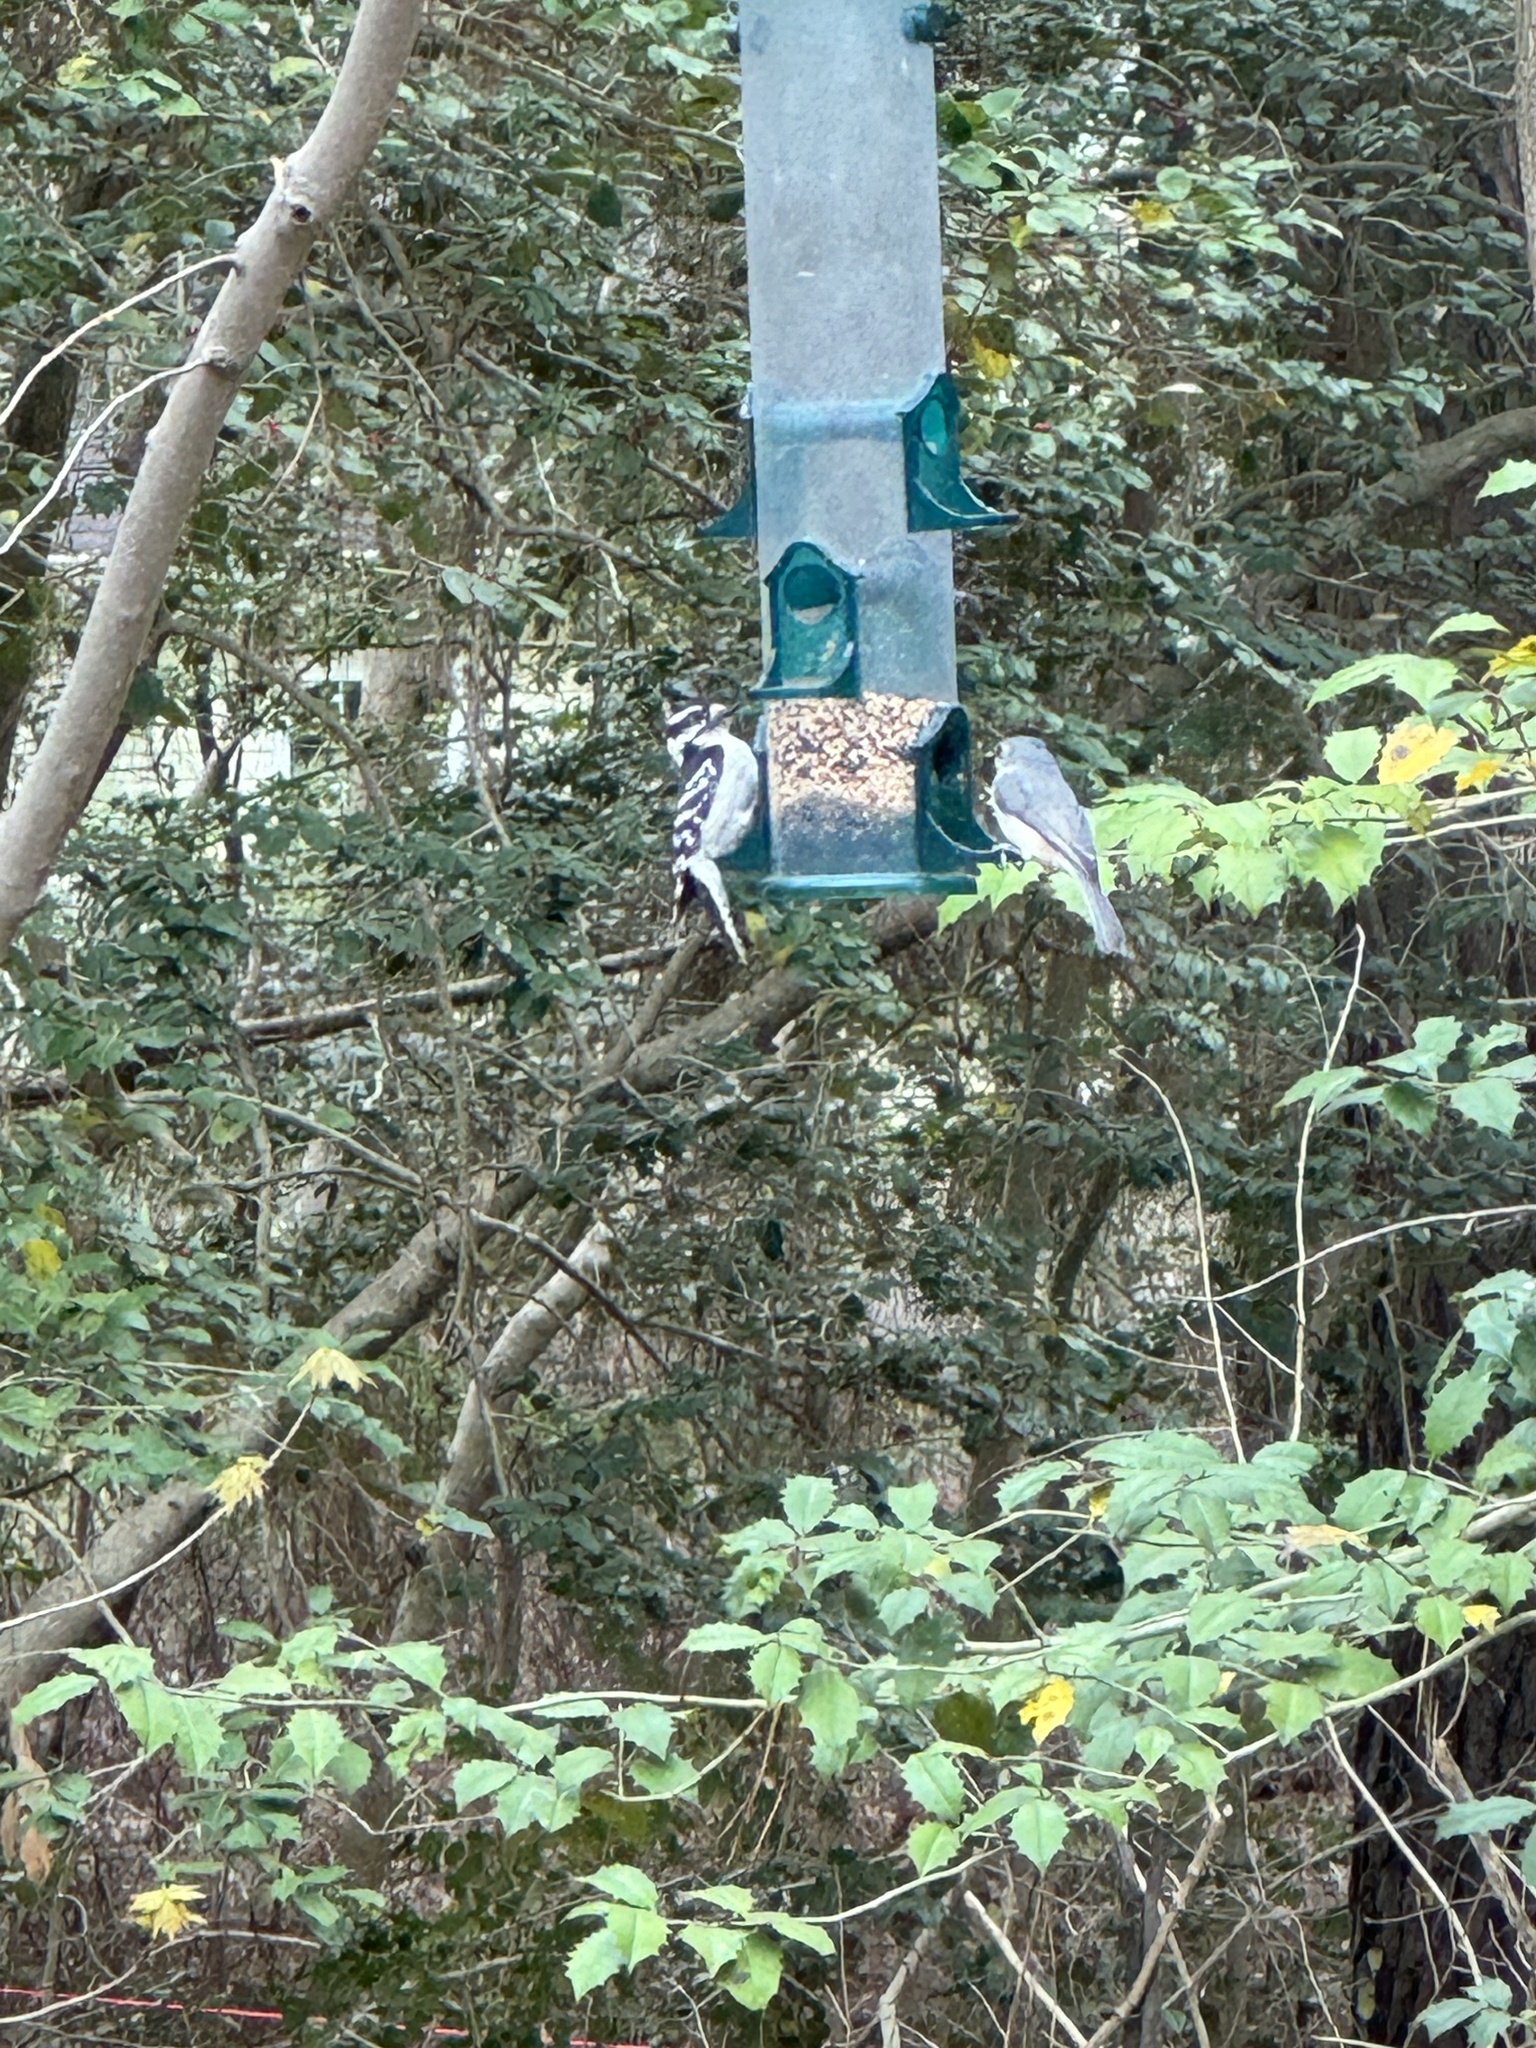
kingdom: Animalia
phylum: Chordata
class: Aves
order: Piciformes
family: Picidae
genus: Dryobates
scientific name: Dryobates pubescens
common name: Downy woodpecker
